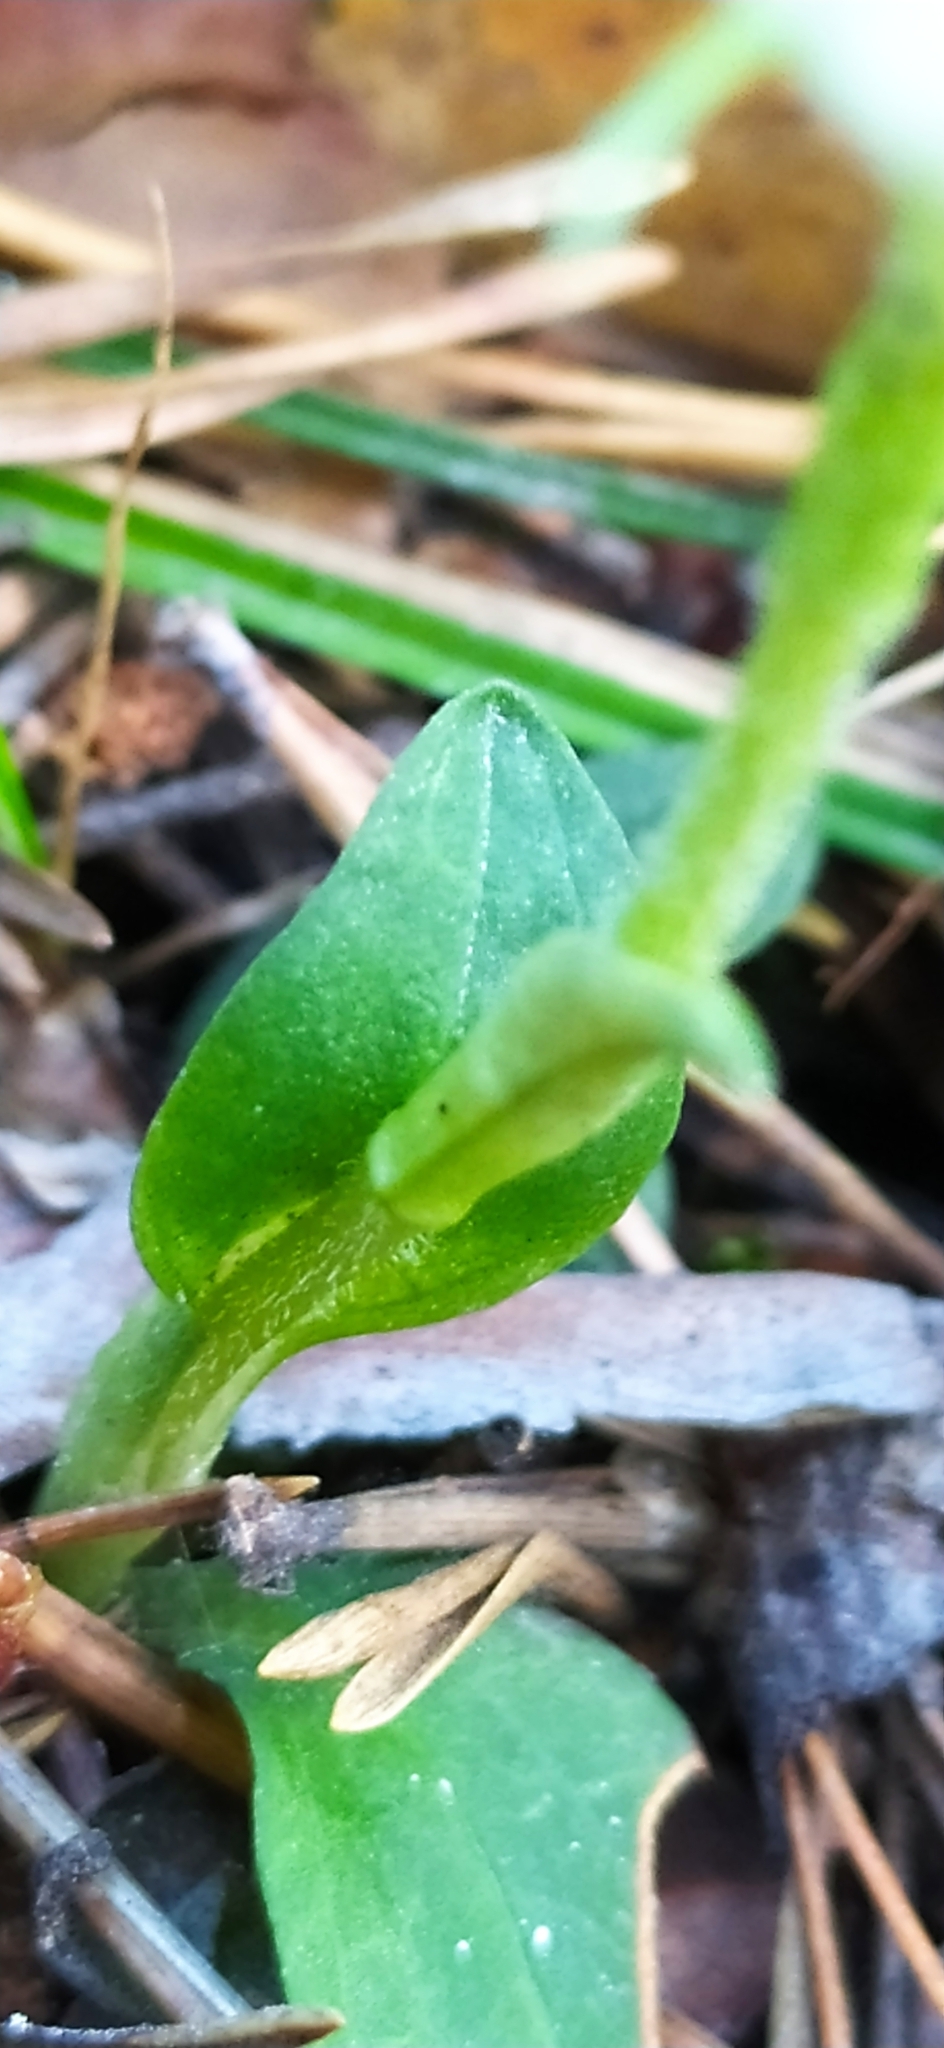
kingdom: Plantae
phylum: Tracheophyta
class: Liliopsida
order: Asparagales
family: Orchidaceae
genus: Goodyera
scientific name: Goodyera repens
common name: Creeping lady's-tresses
